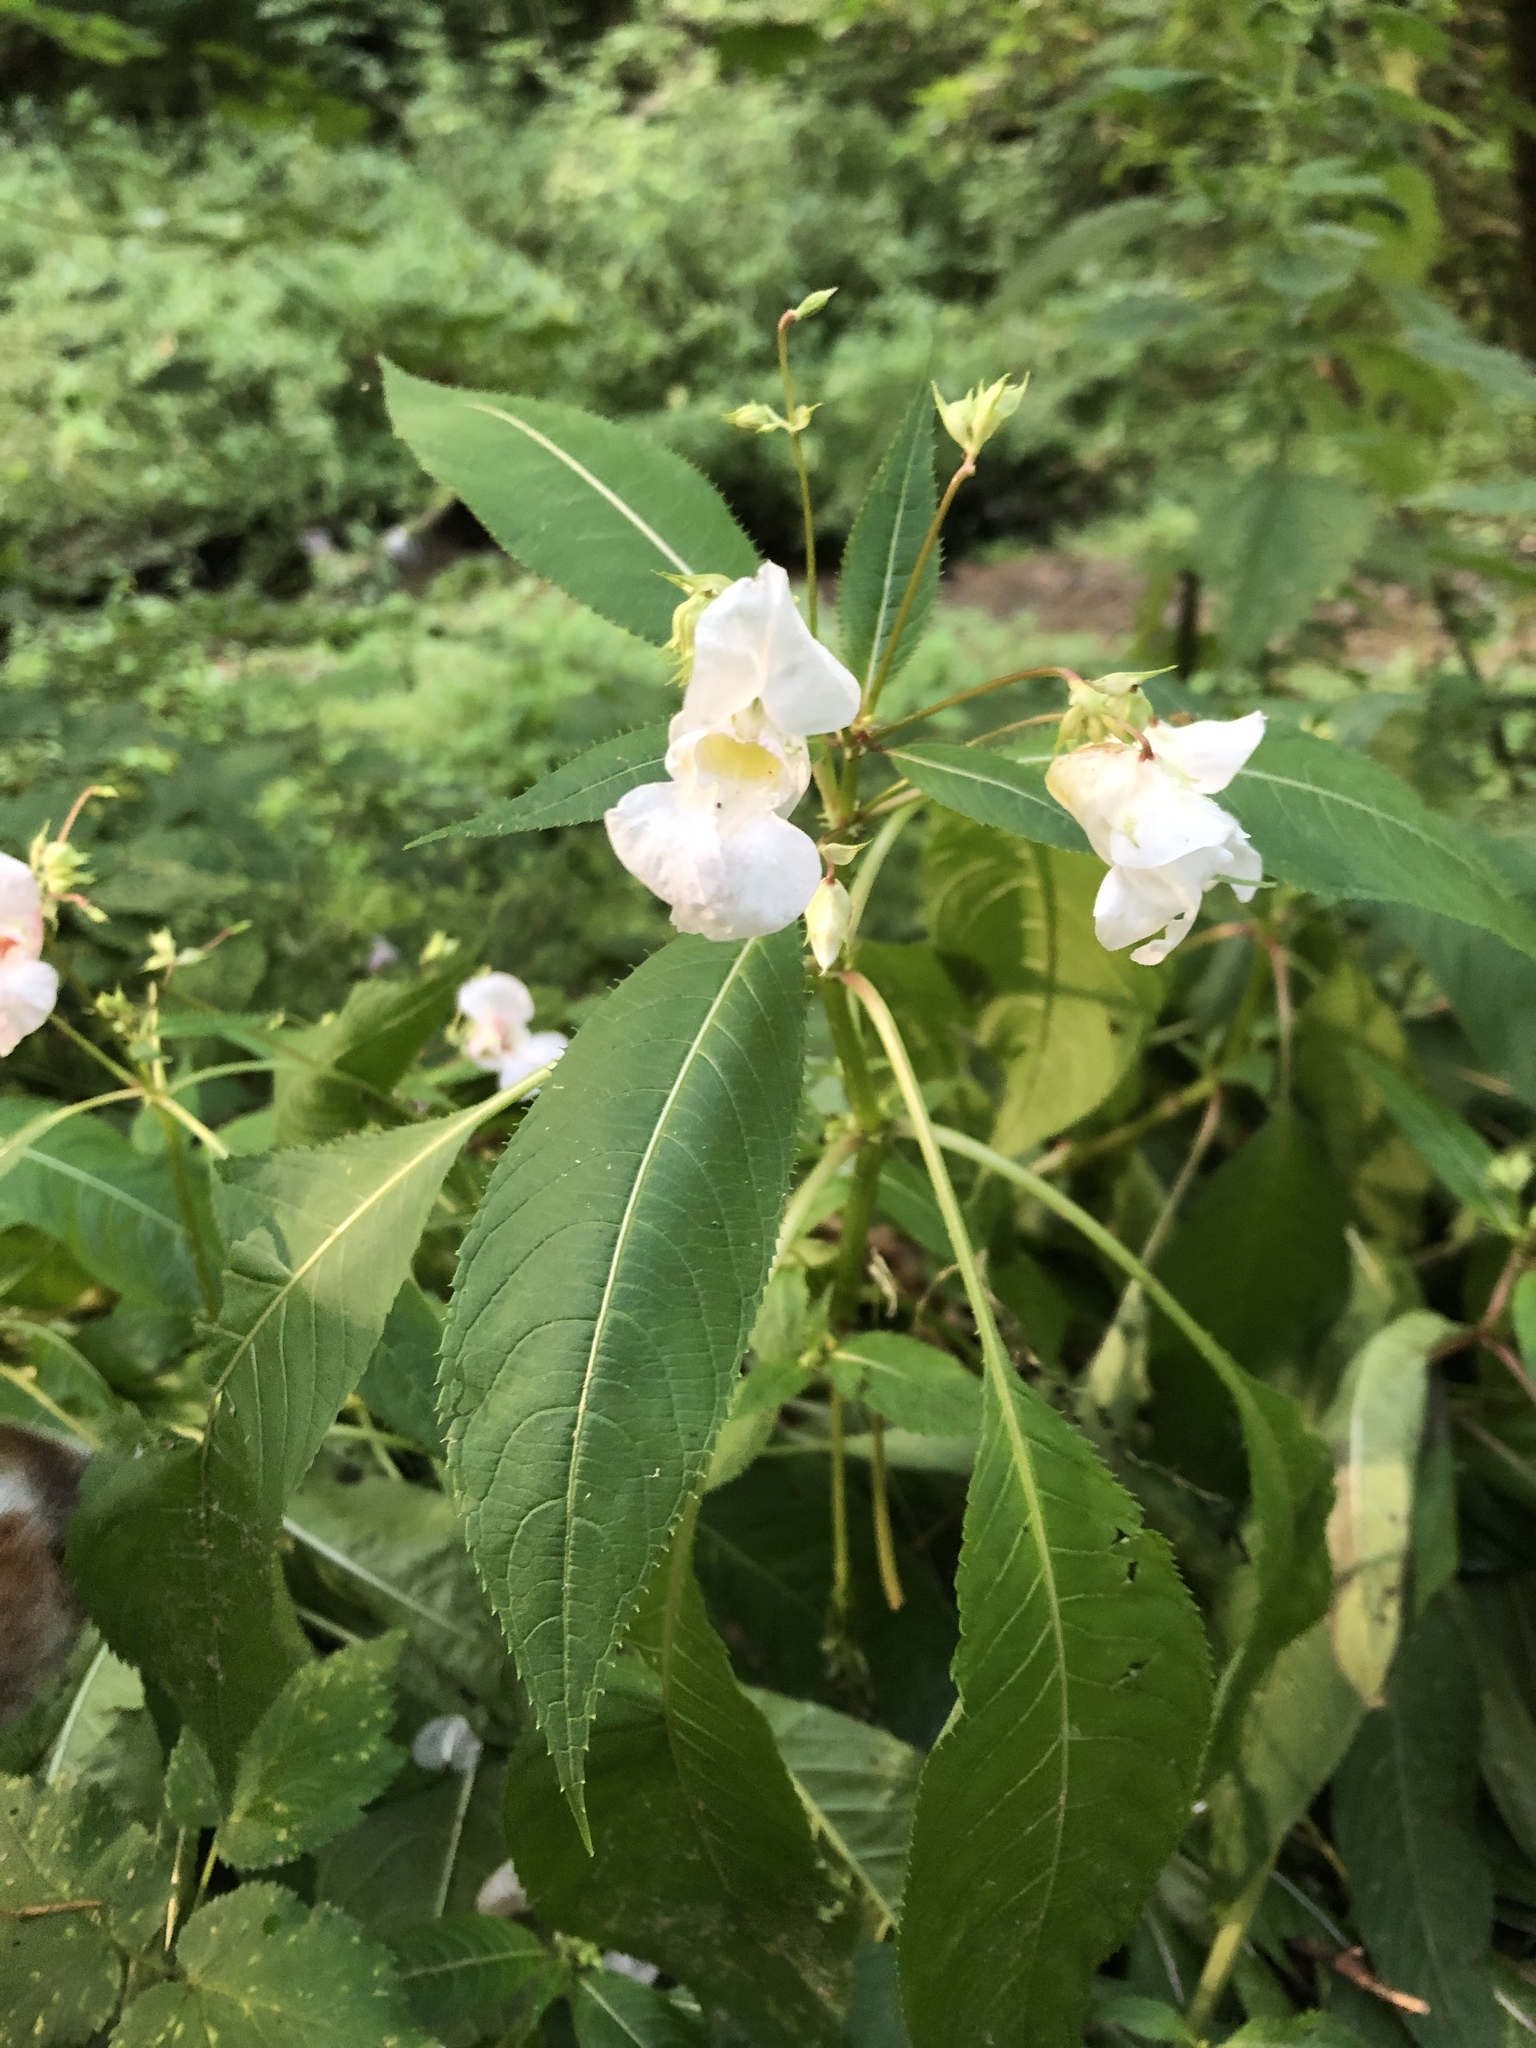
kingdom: Plantae
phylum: Tracheophyta
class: Magnoliopsida
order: Ericales
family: Balsaminaceae
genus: Impatiens
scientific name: Impatiens glandulifera
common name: Himalayan balsam
